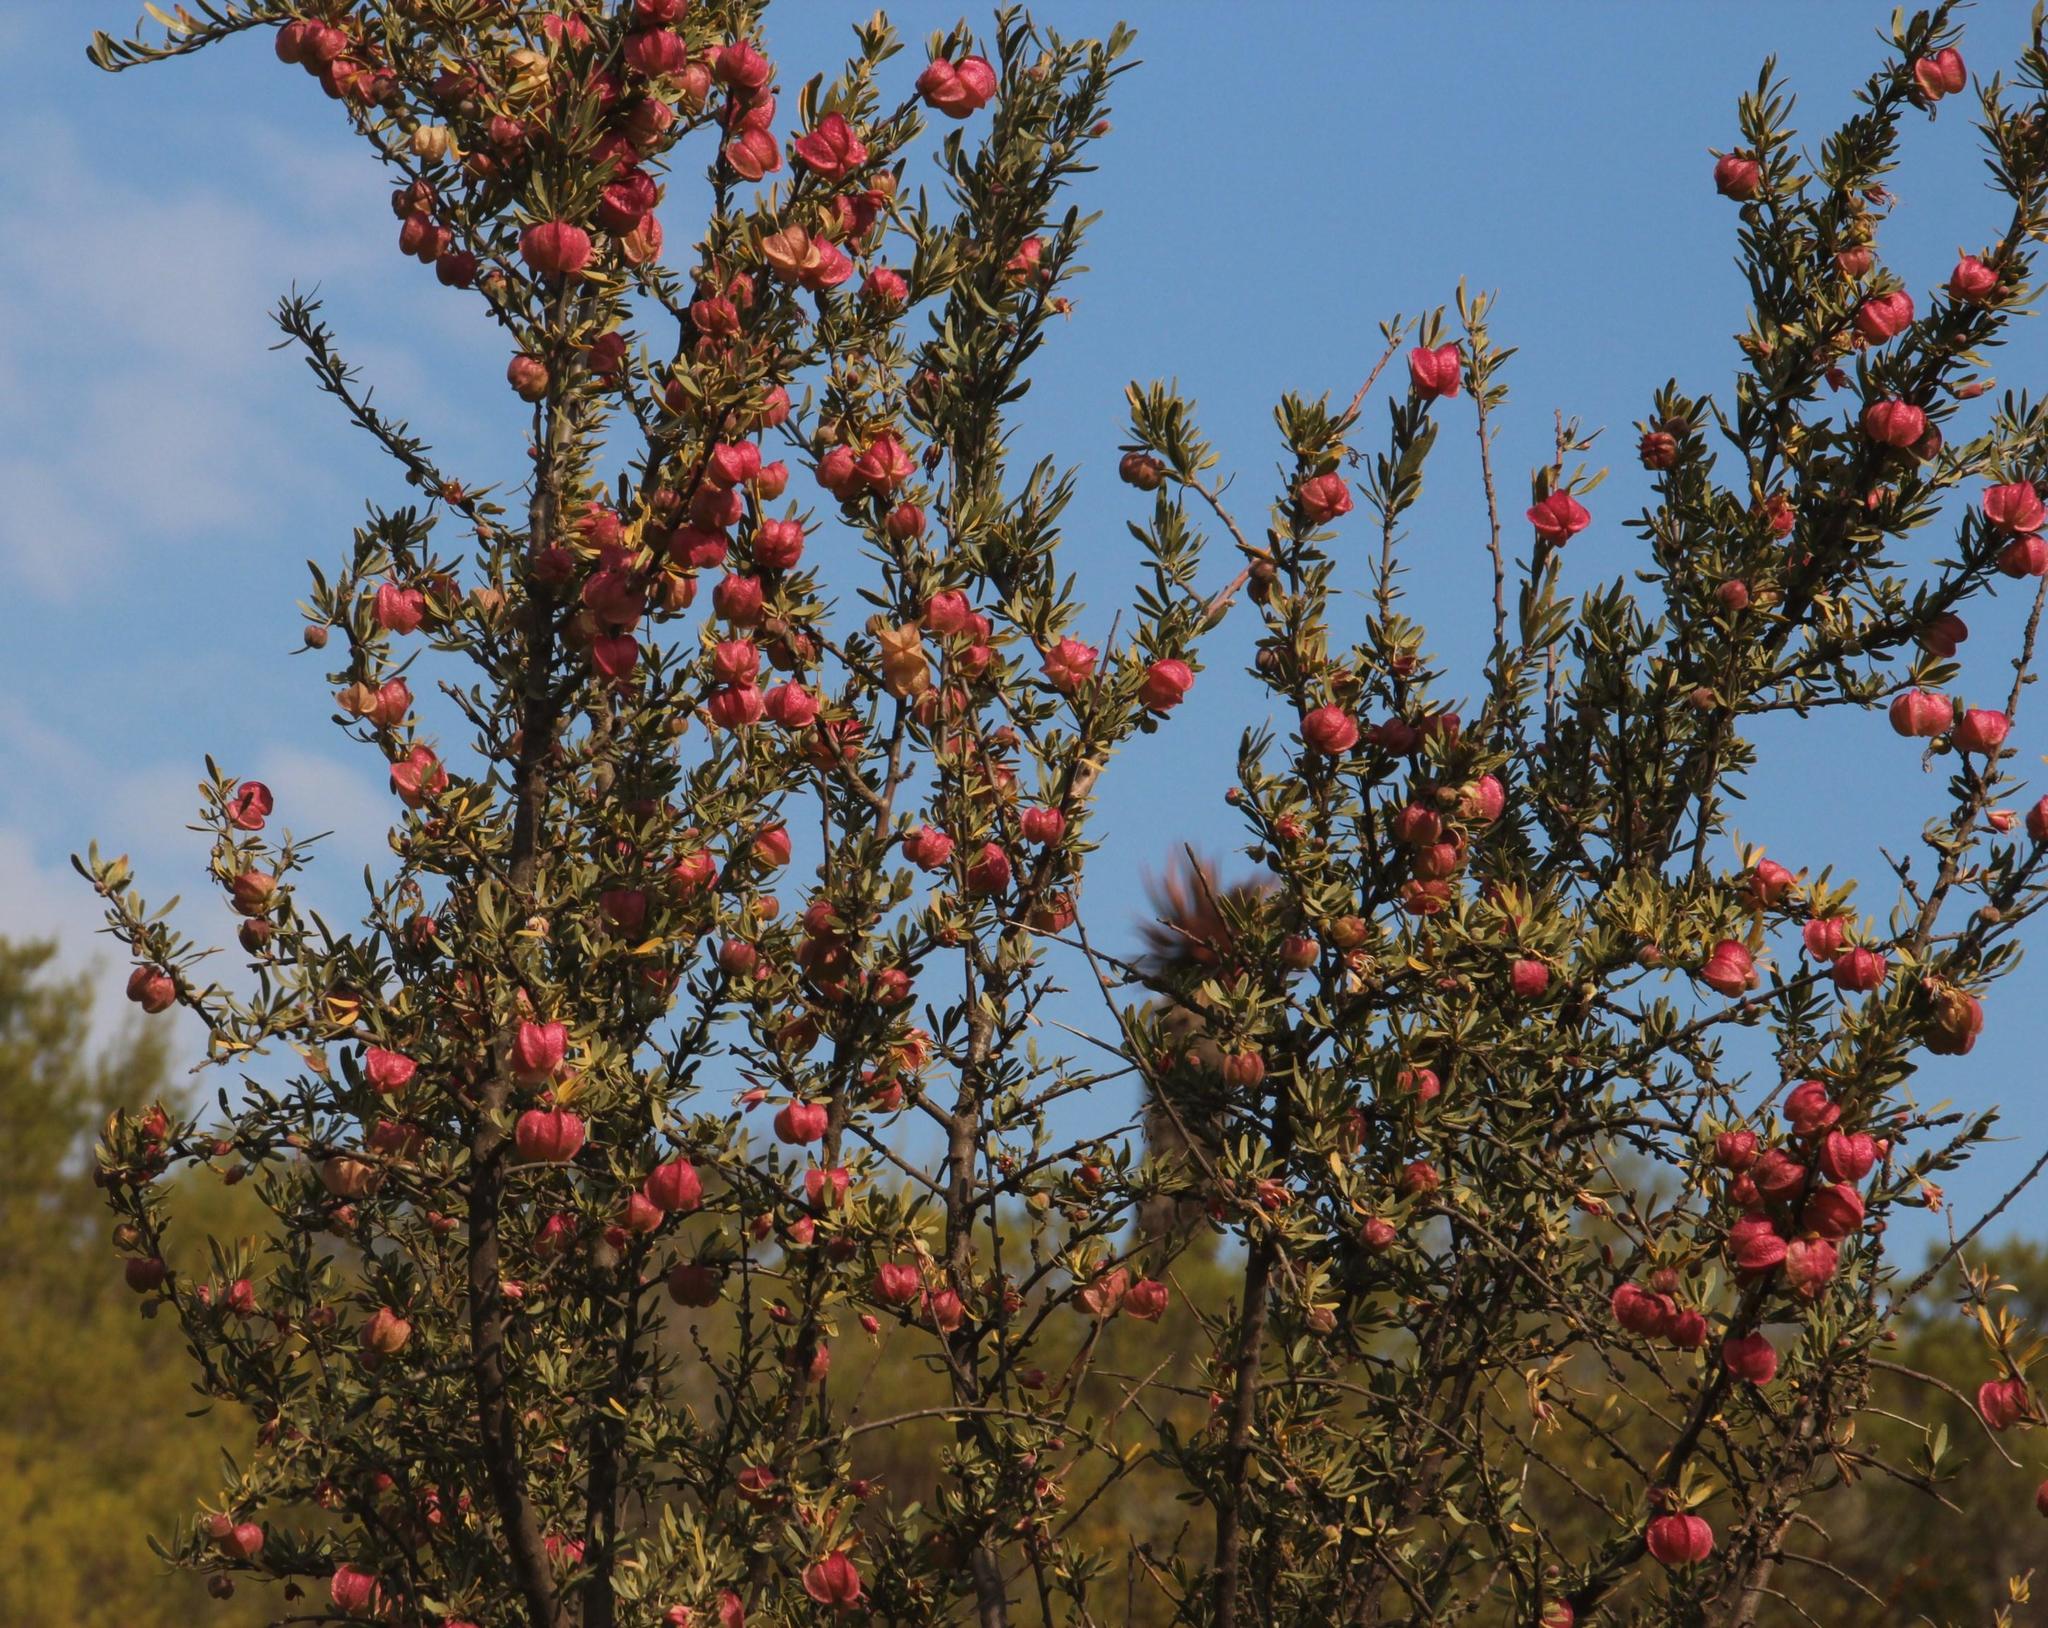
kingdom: Plantae
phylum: Tracheophyta
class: Magnoliopsida
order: Sapindales
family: Meliaceae
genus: Nymania
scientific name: Nymania capensis
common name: Chinese lantern tree
